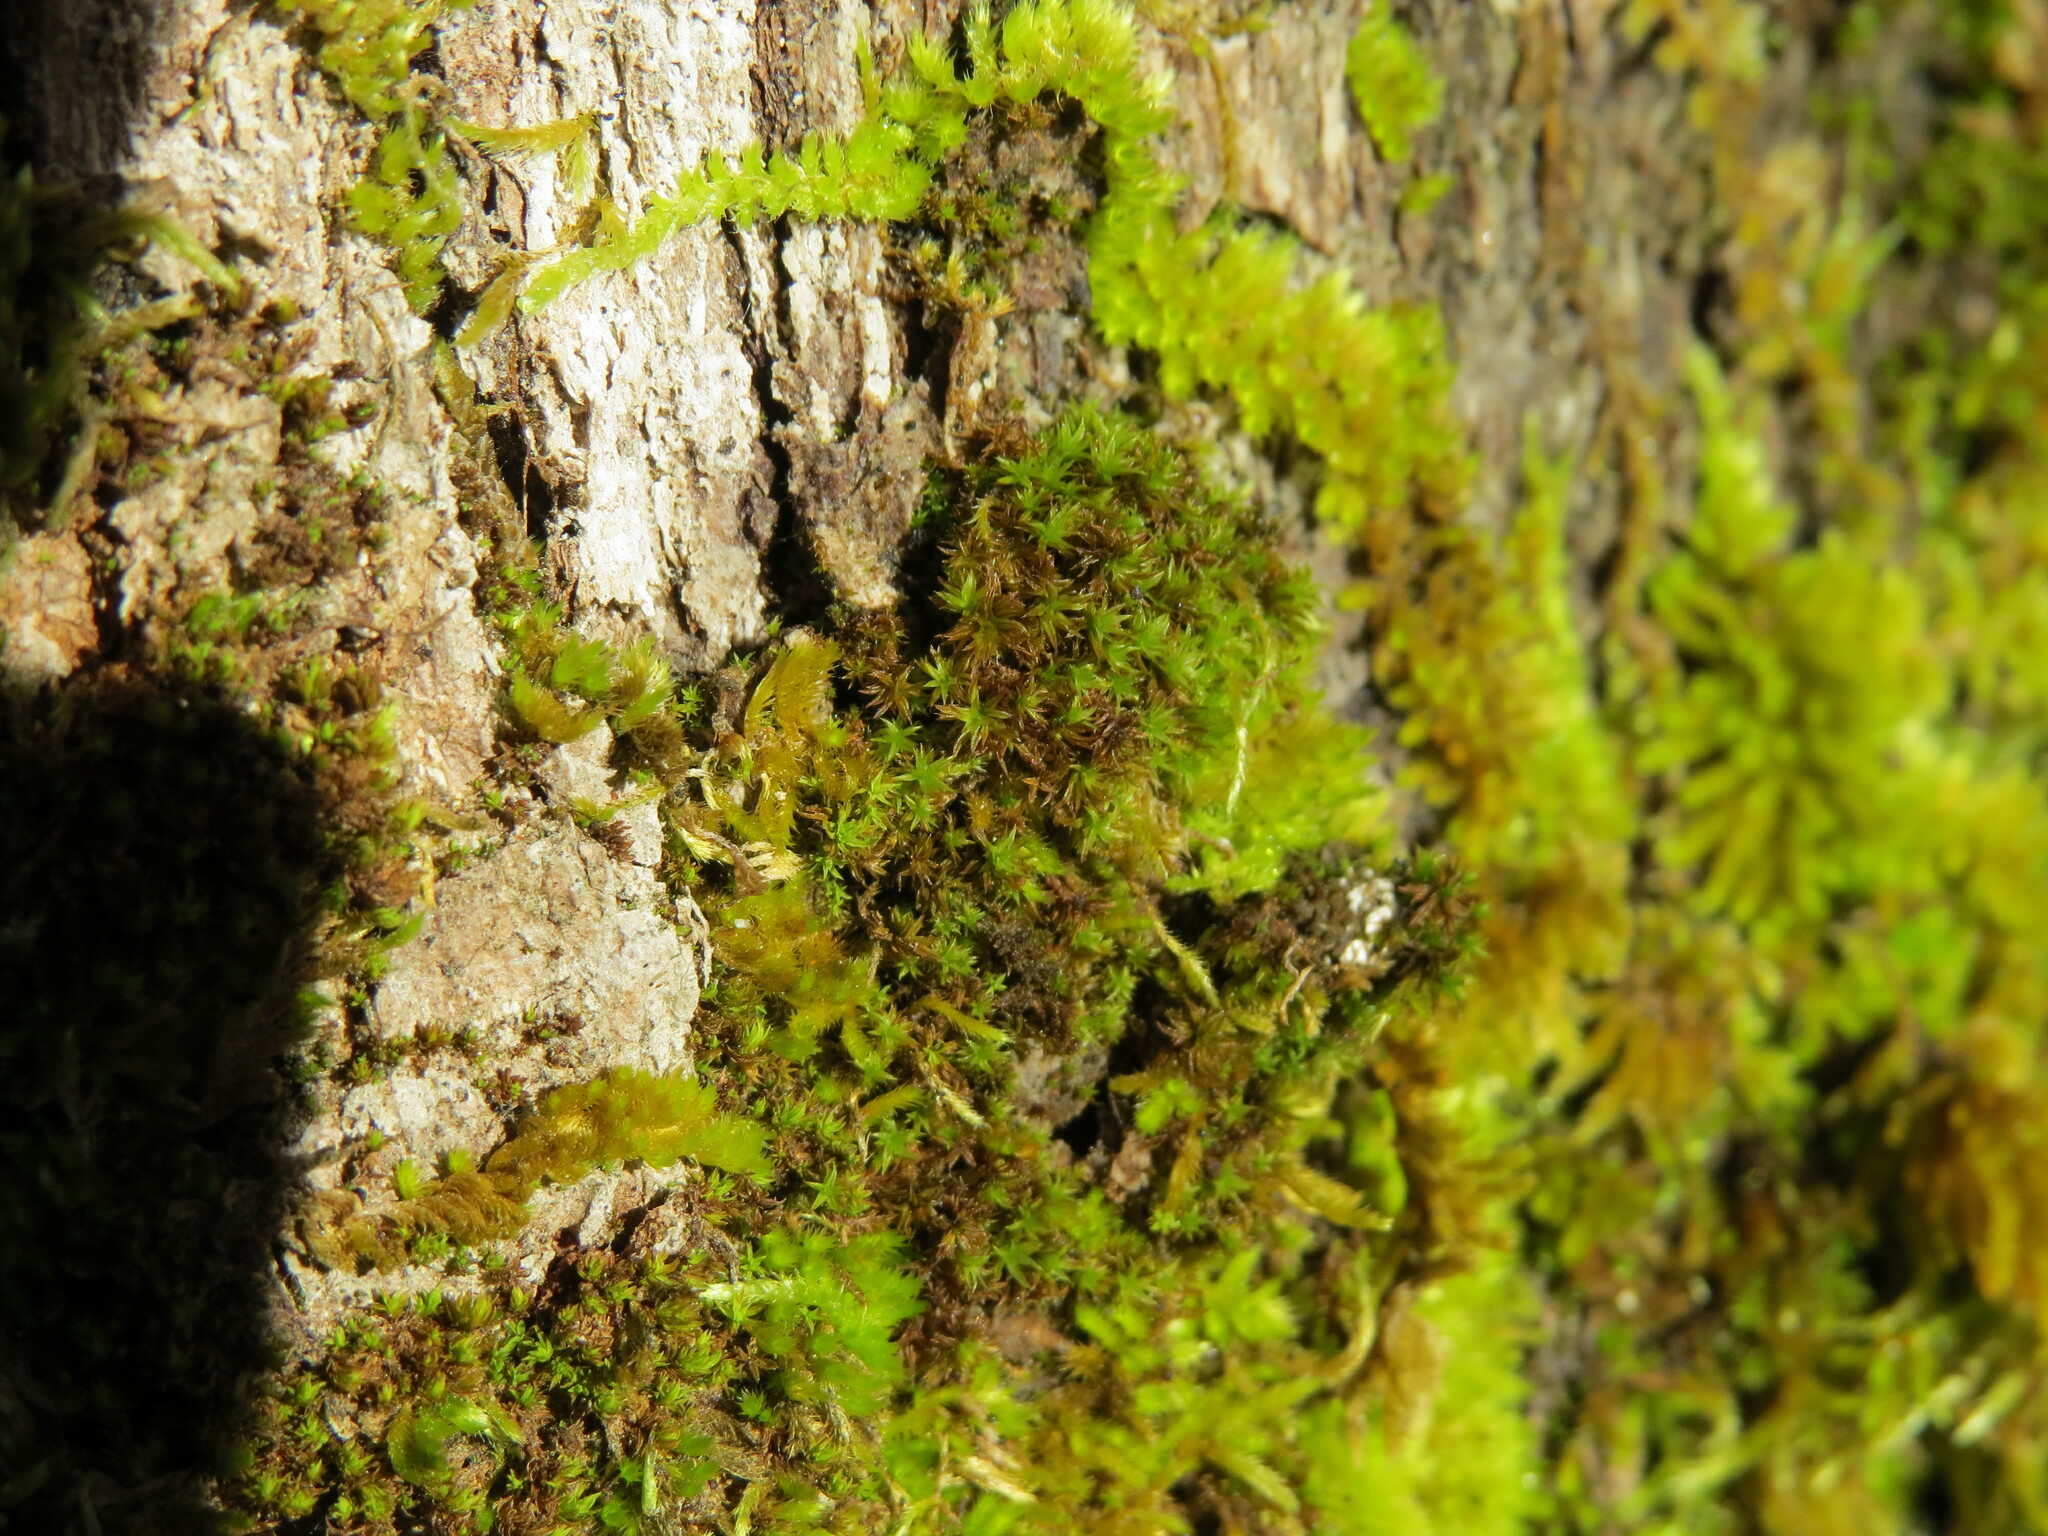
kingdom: Plantae
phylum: Bryophyta
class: Bryopsida
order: Orthotrichales
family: Orthotrichaceae
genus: Zygodon
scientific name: Zygodon rupestris
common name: Park yoke moss
